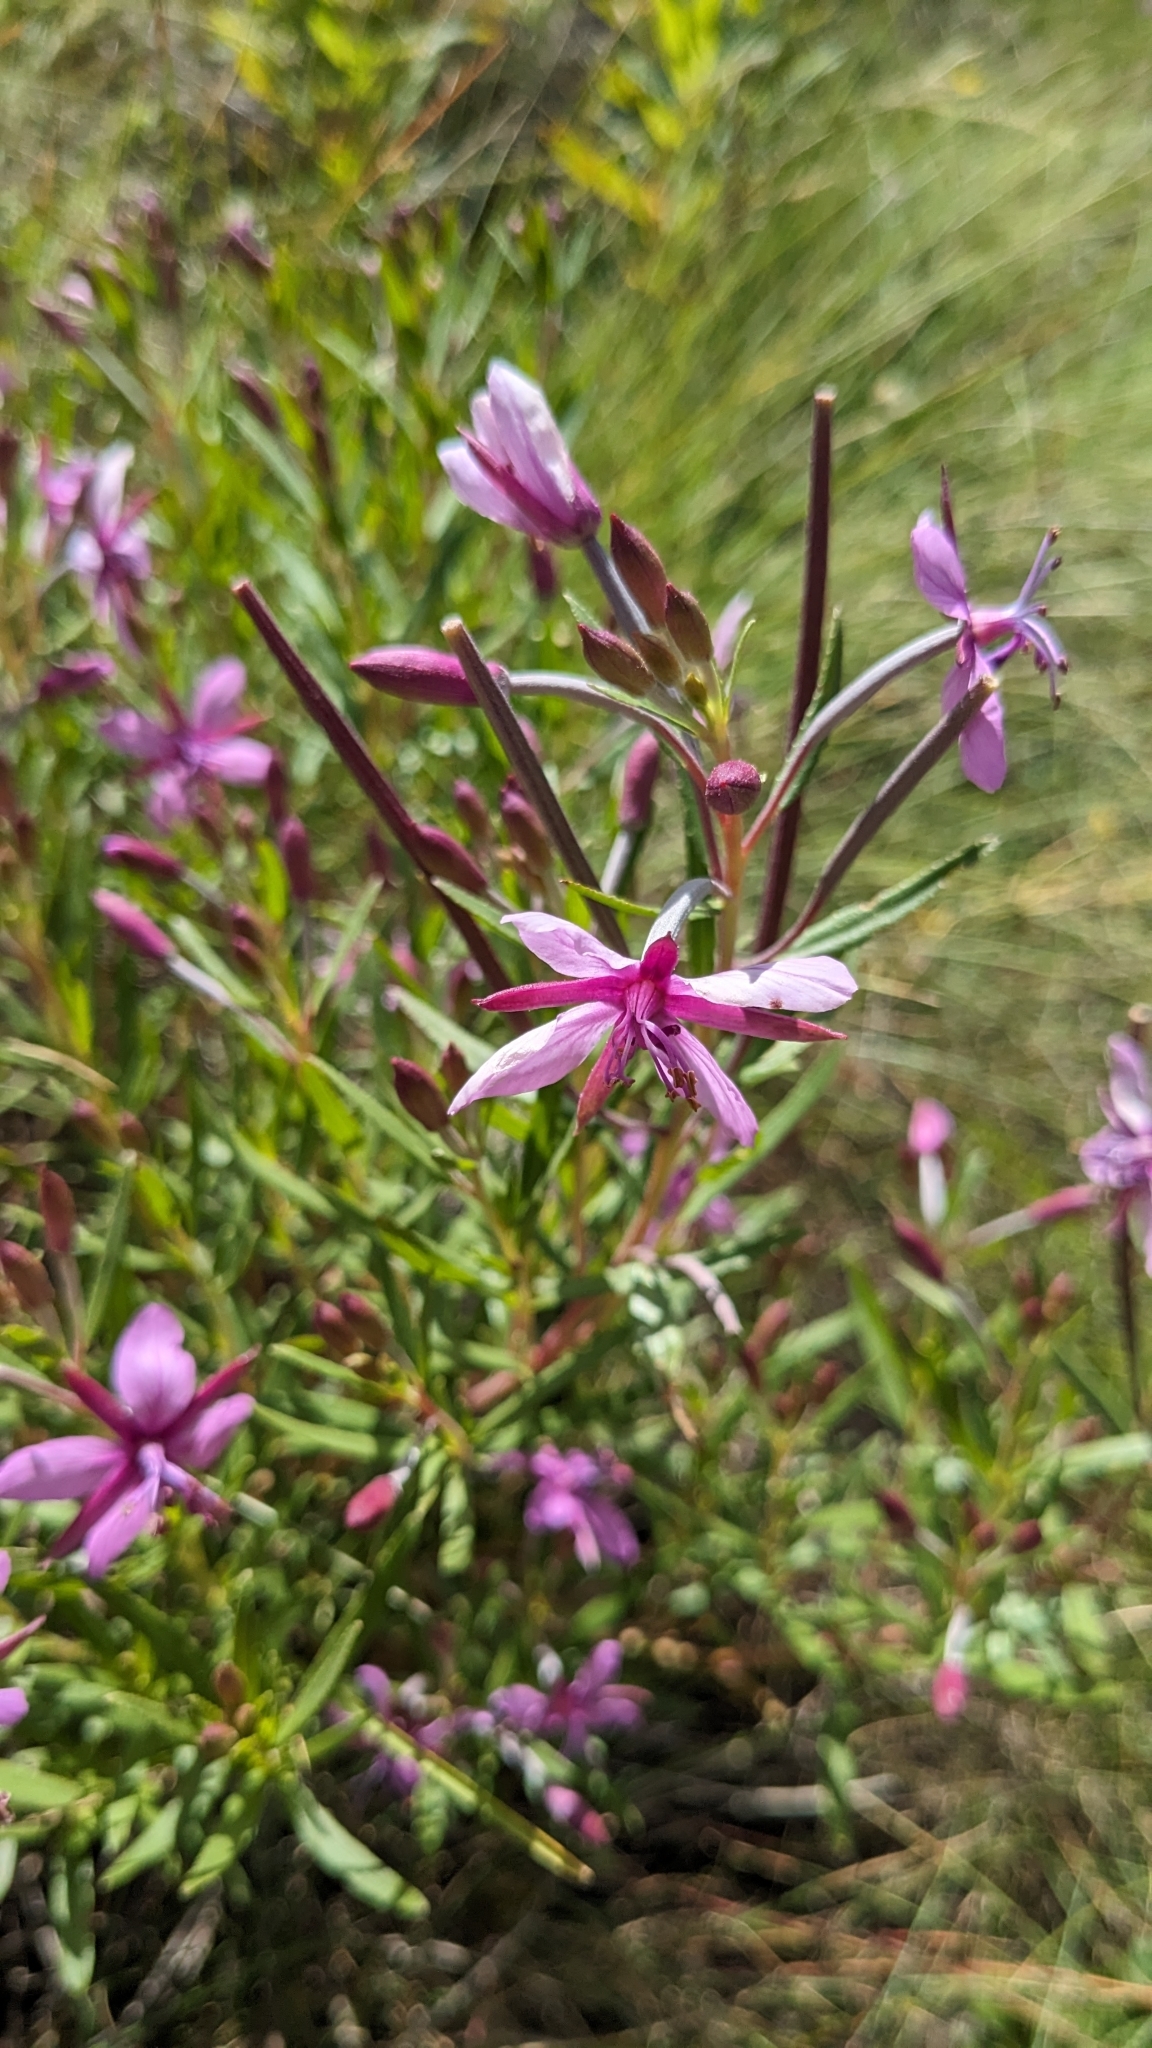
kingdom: Plantae
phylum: Tracheophyta
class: Magnoliopsida
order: Myrtales
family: Onagraceae
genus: Chamaenerion
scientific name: Chamaenerion fleischeri
